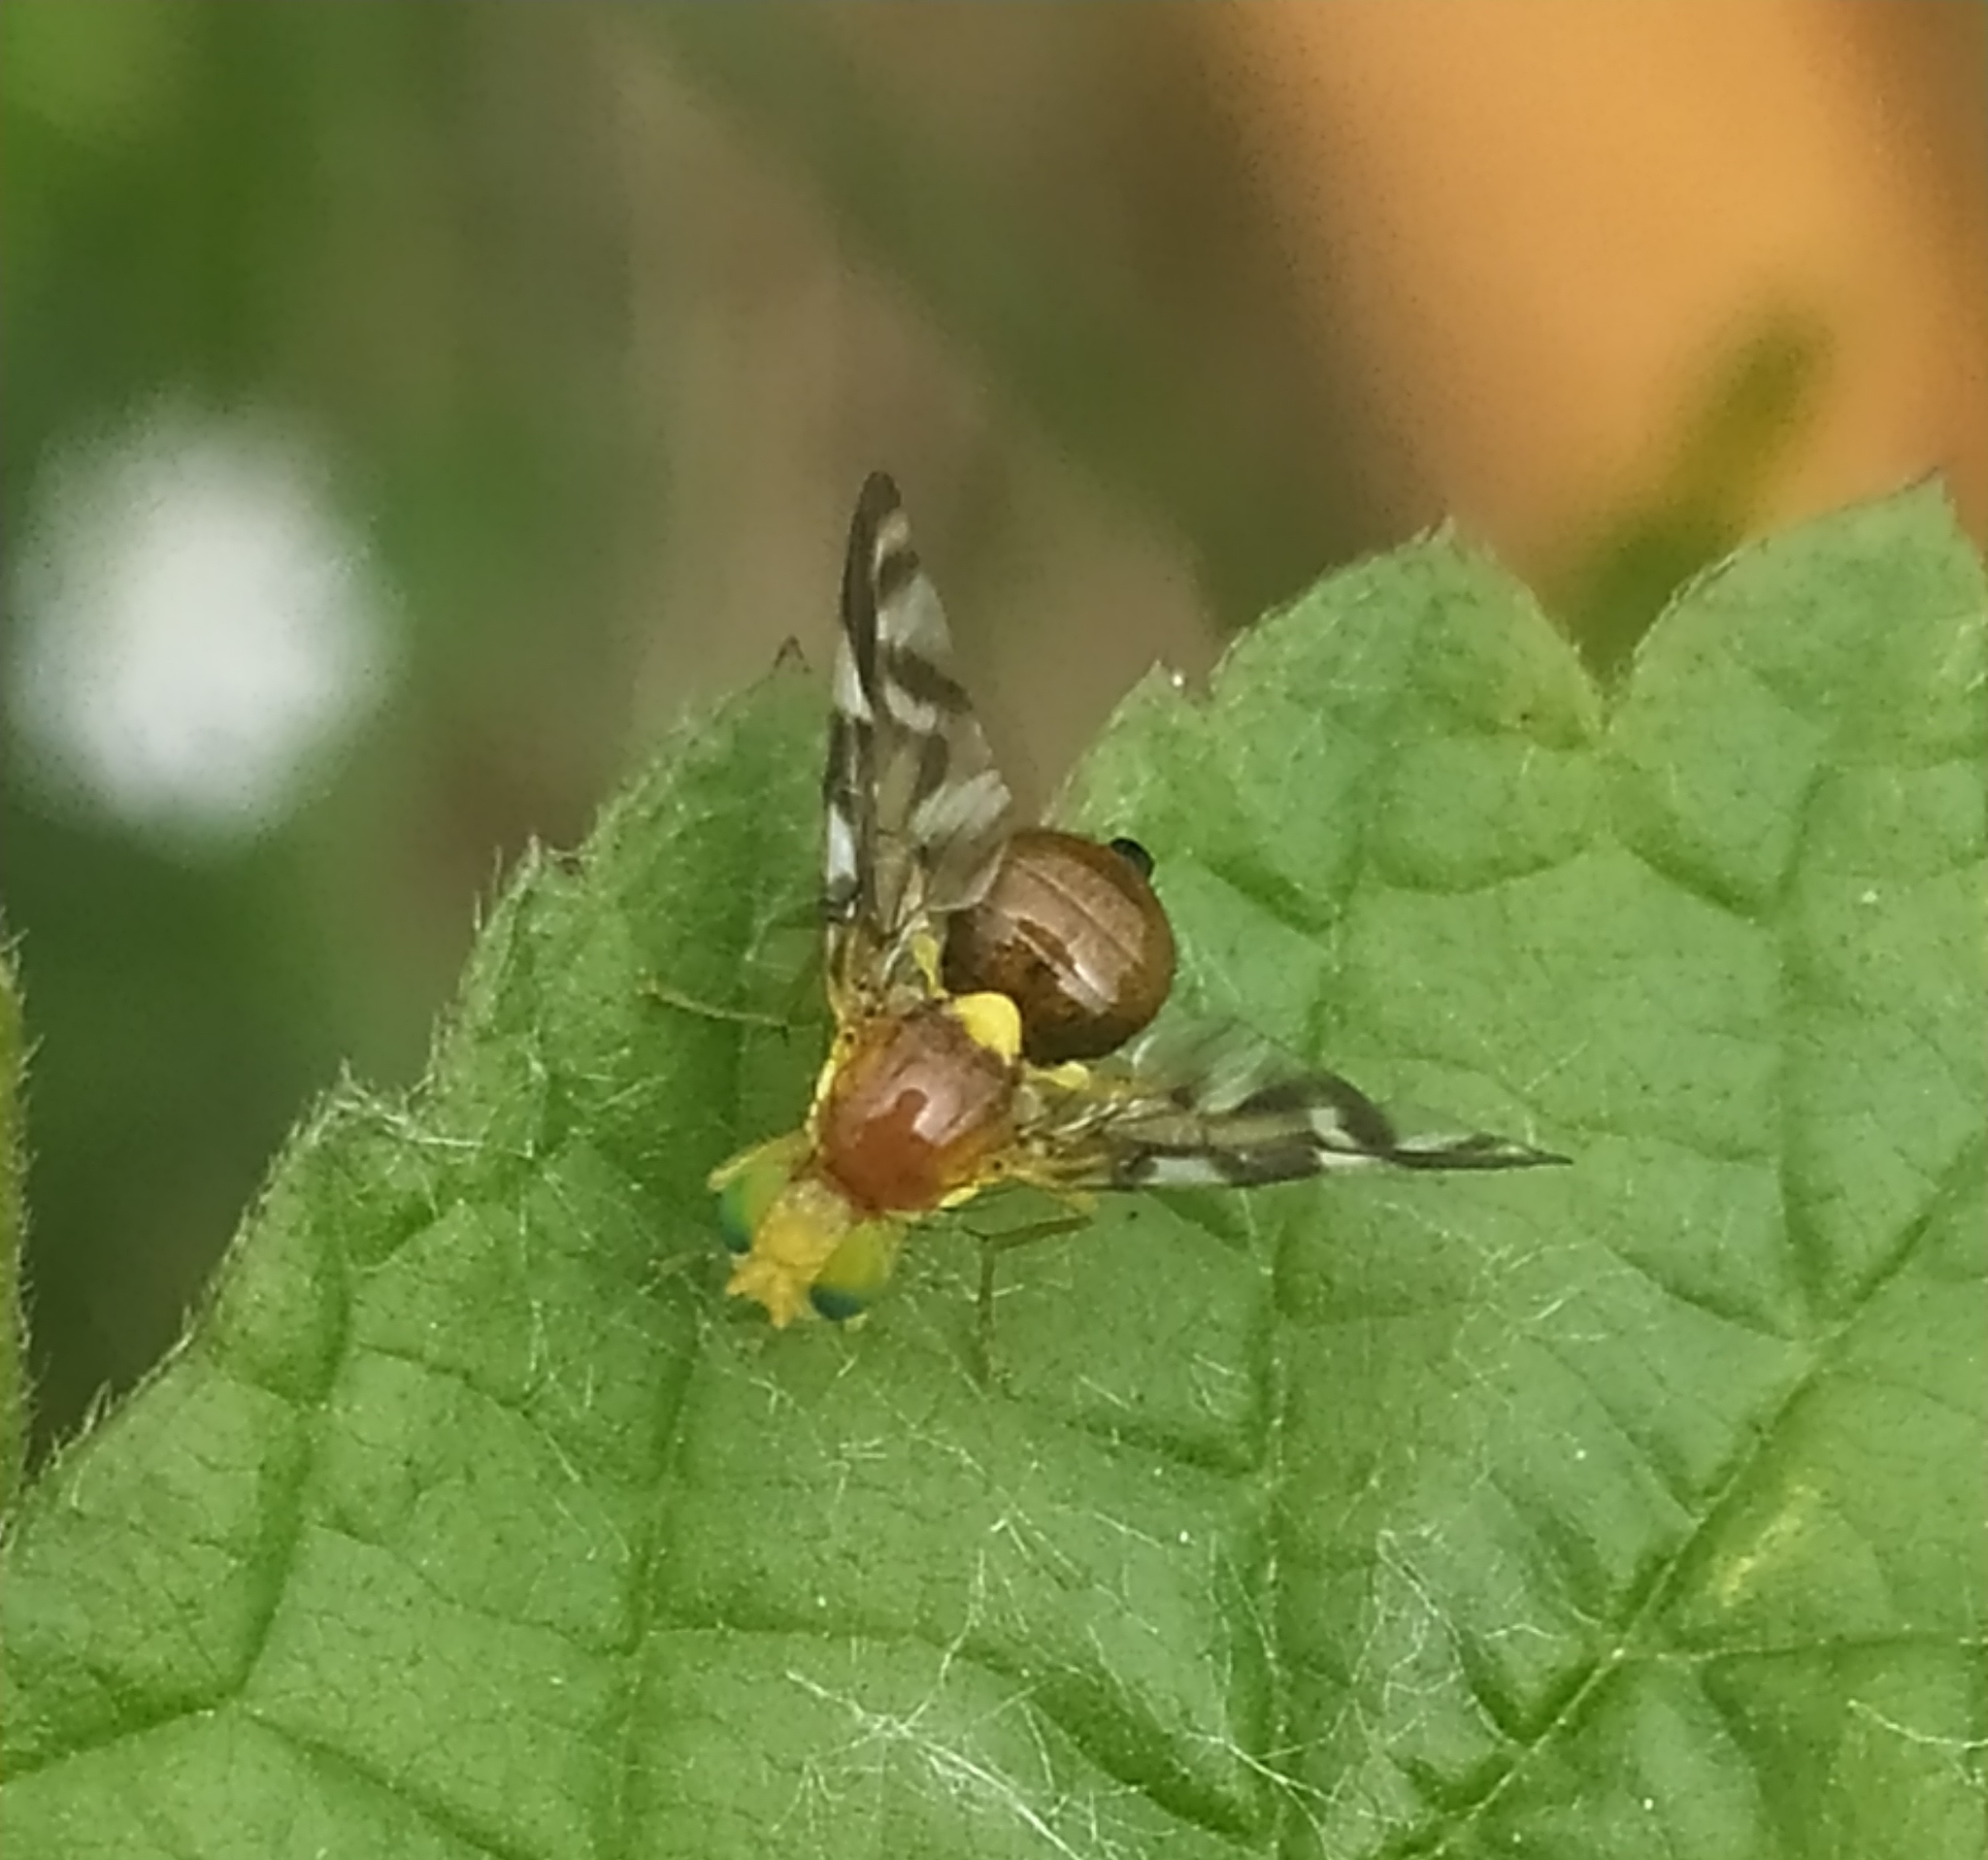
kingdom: Animalia
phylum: Arthropoda
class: Insecta
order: Diptera
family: Tephritidae
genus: Euleia
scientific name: Euleia heraclei
